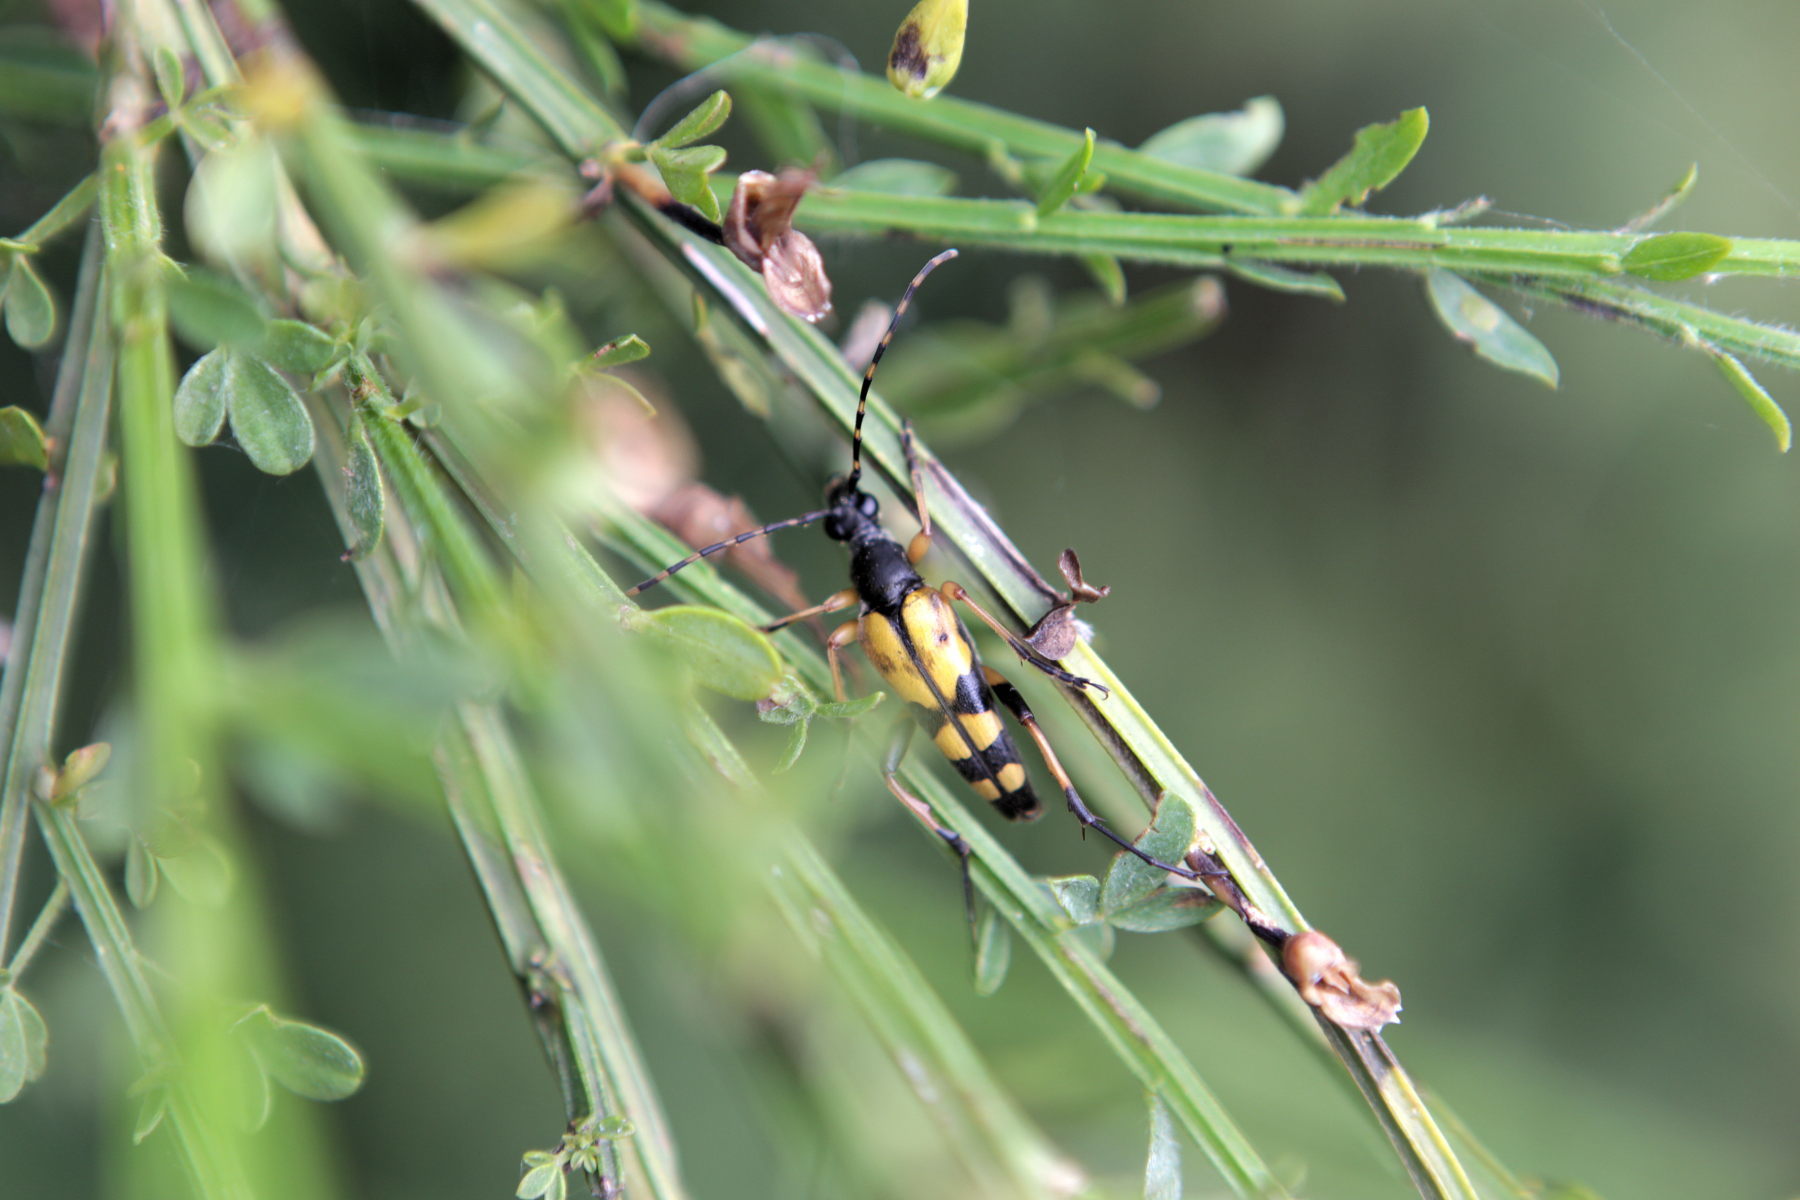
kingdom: Animalia
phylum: Arthropoda
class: Insecta
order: Coleoptera
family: Cerambycidae
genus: Rutpela
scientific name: Rutpela maculata
